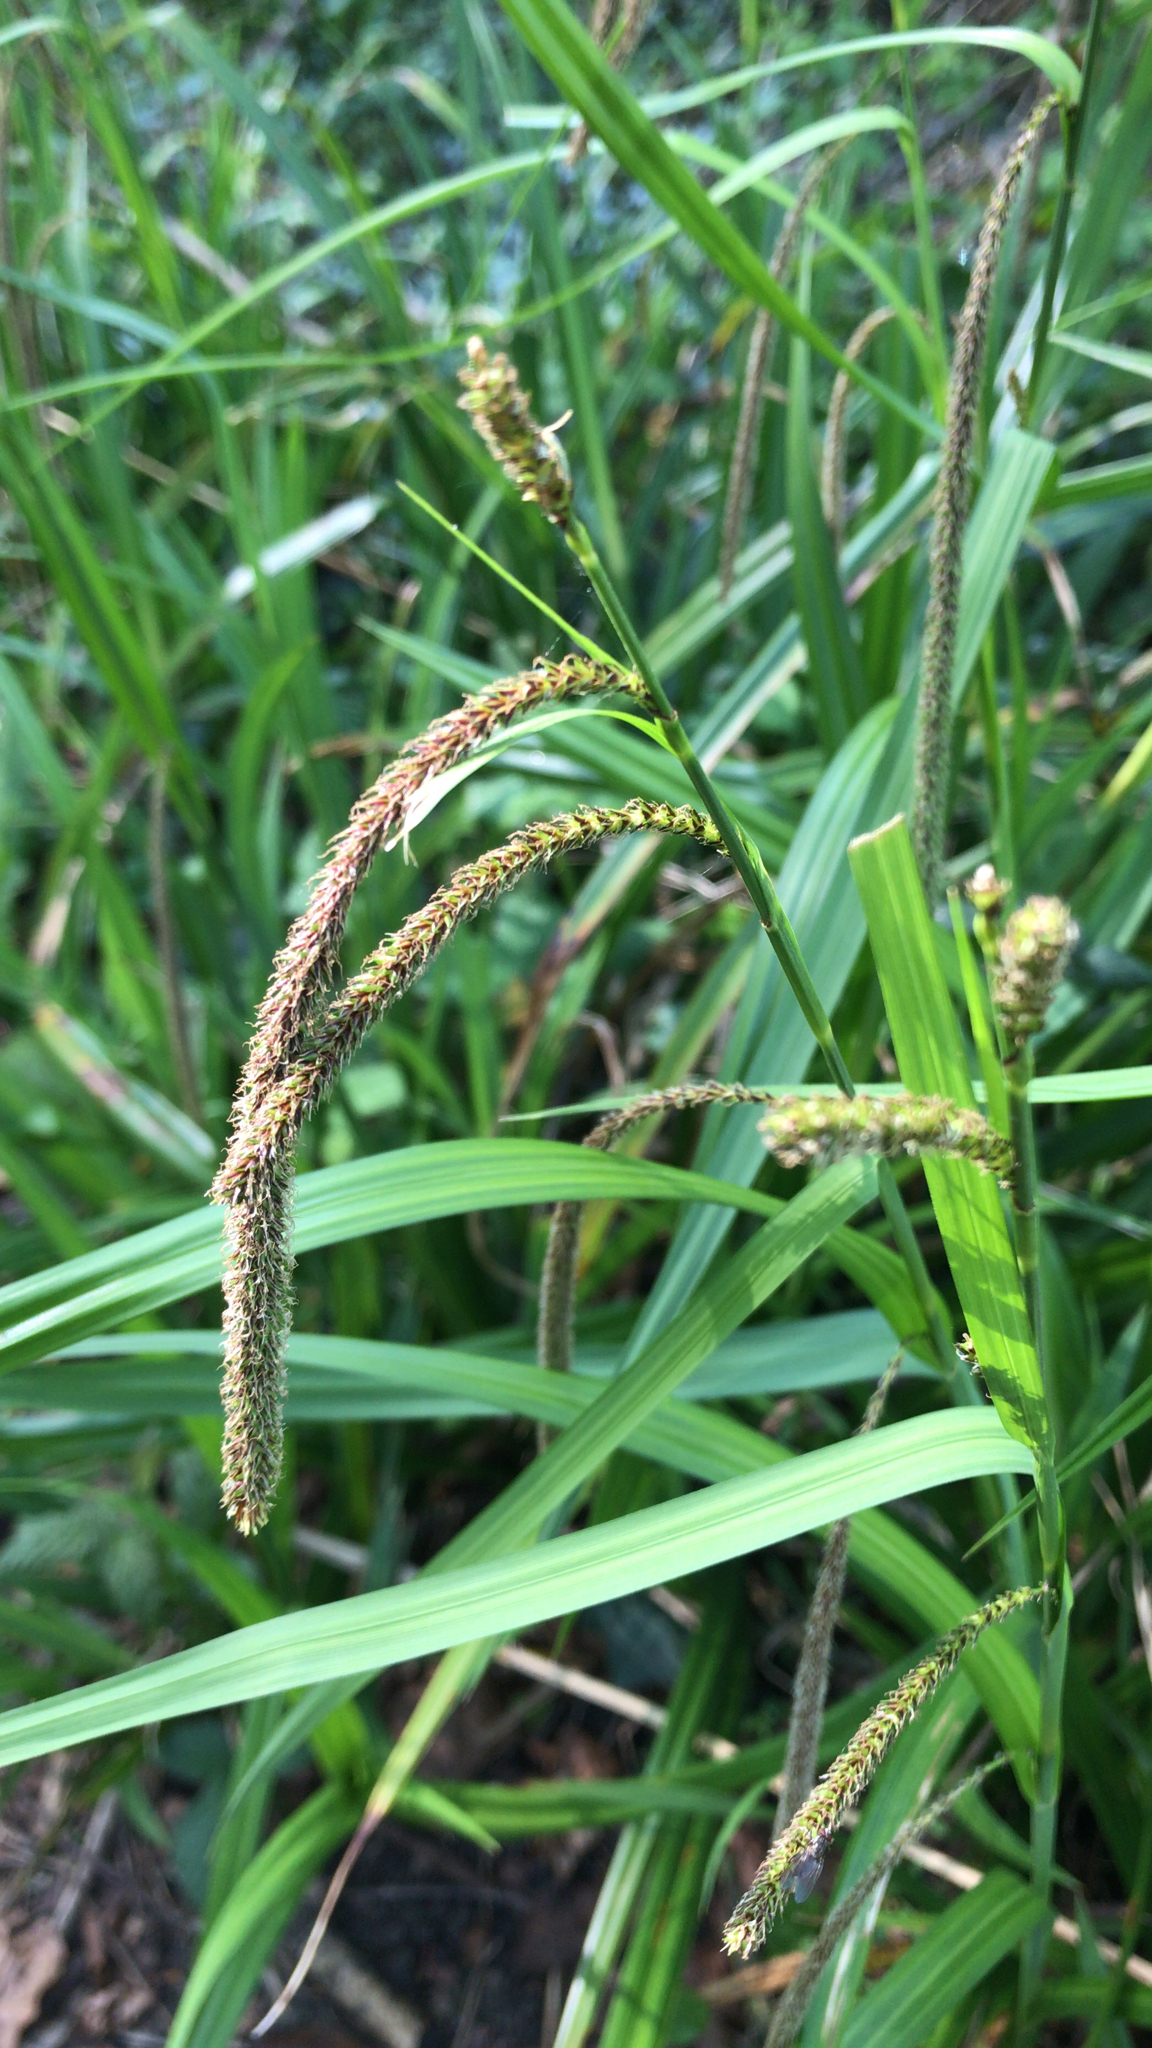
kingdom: Plantae
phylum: Tracheophyta
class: Liliopsida
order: Poales
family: Cyperaceae
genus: Carex
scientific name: Carex pendula
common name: Pendulous sedge
